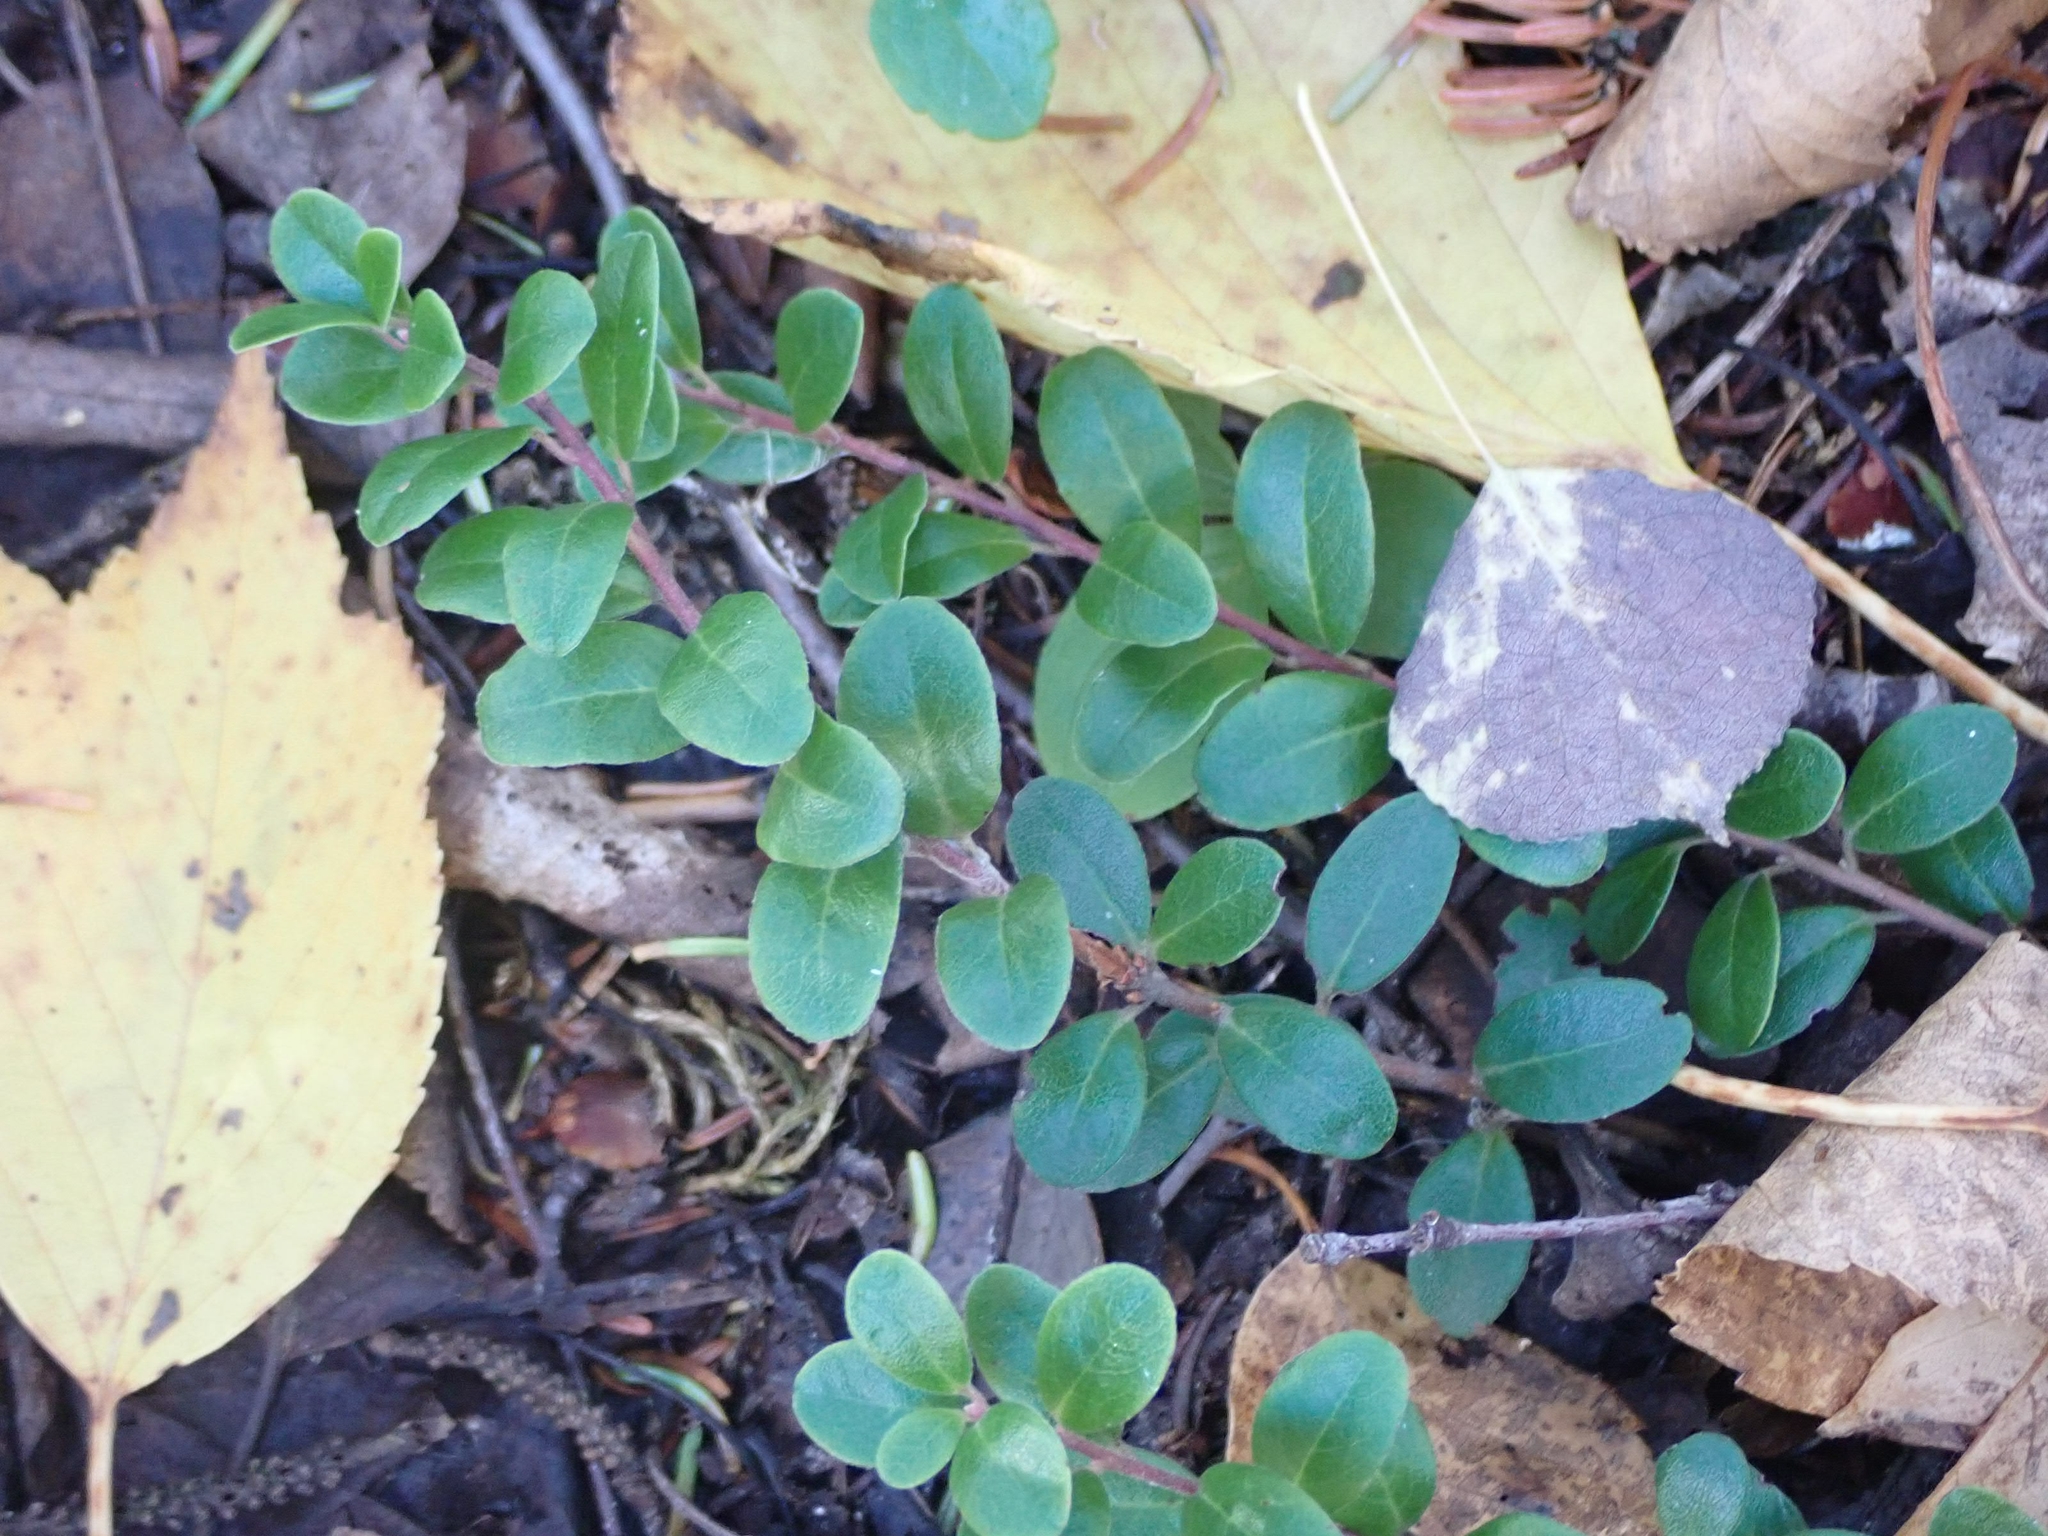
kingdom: Plantae
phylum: Tracheophyta
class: Magnoliopsida
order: Ericales
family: Ericaceae
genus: Arctostaphylos
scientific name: Arctostaphylos uva-ursi
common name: Bearberry
